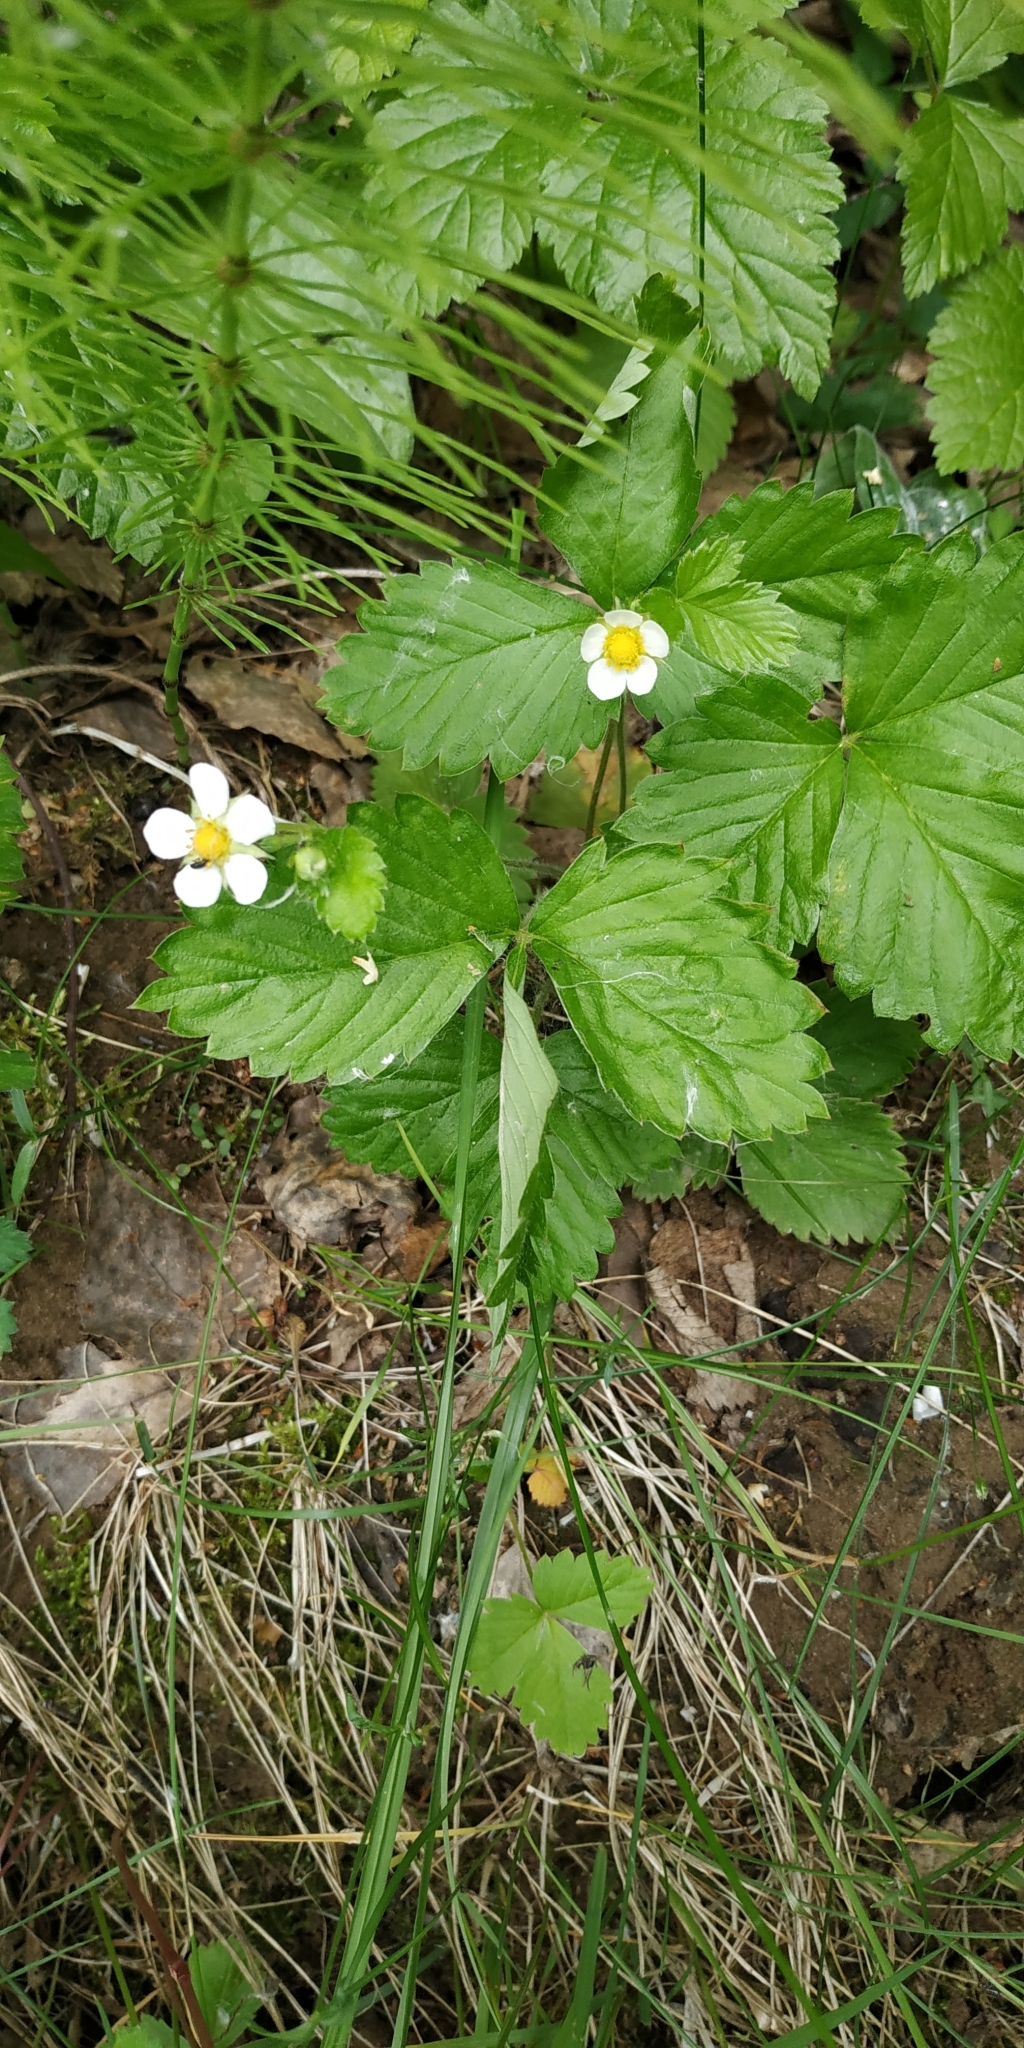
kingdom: Plantae
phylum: Tracheophyta
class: Magnoliopsida
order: Rosales
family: Rosaceae
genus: Fragaria
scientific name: Fragaria vesca
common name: Wild strawberry
